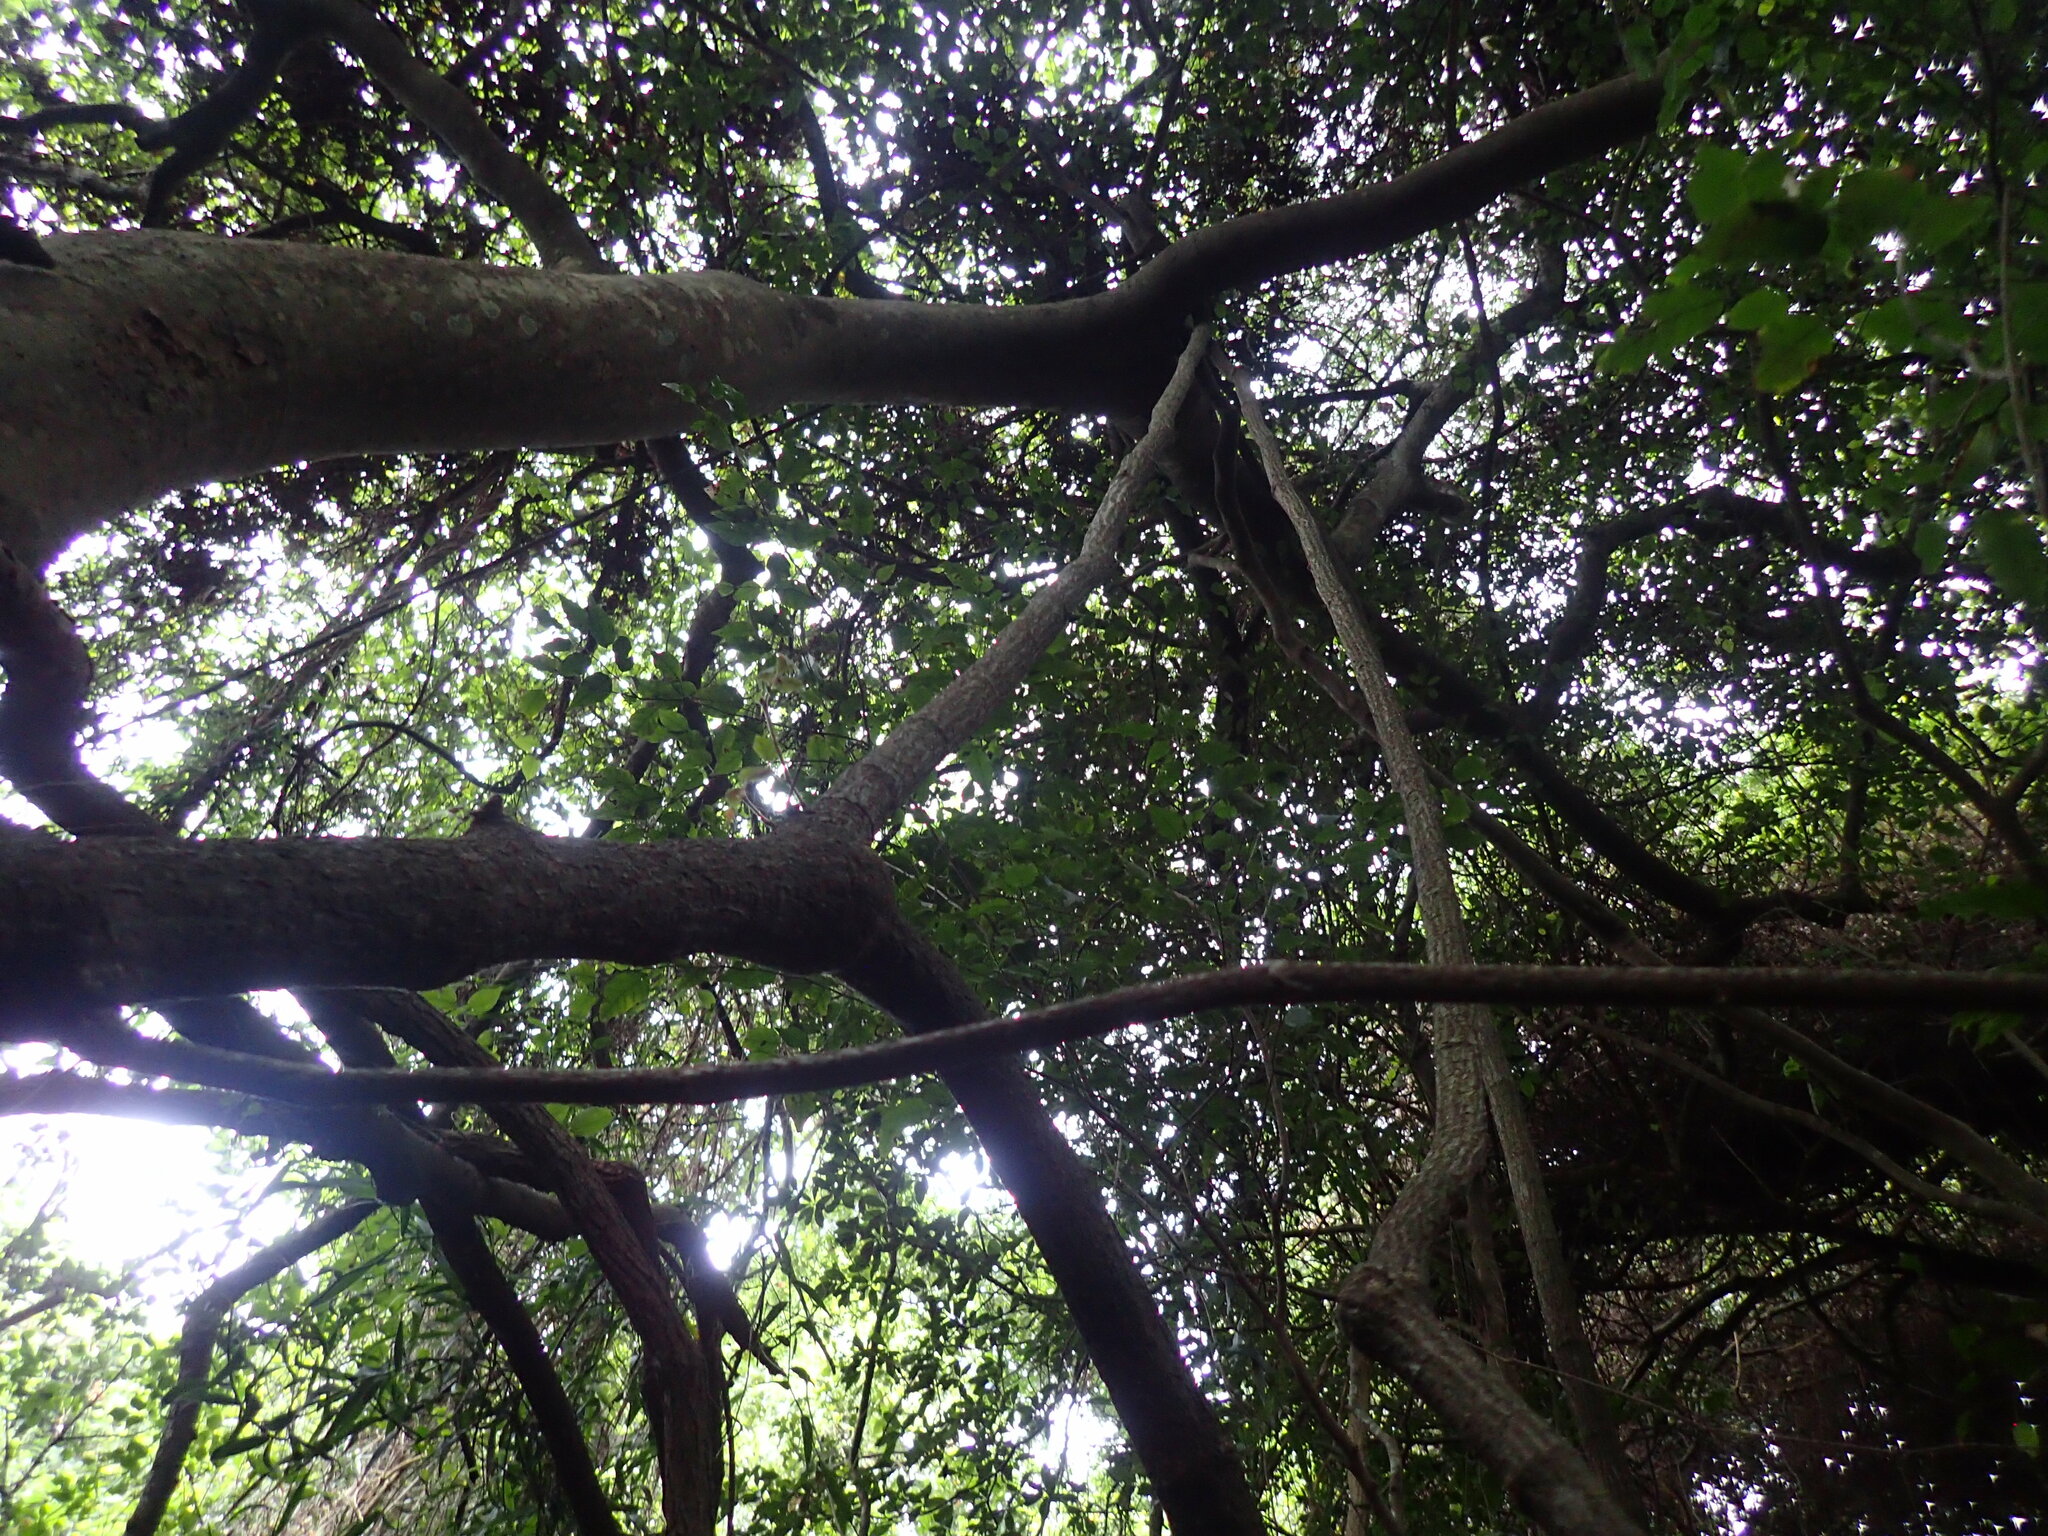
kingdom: Plantae
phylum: Tracheophyta
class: Magnoliopsida
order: Vitales
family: Vitaceae
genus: Rhoicissus
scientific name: Rhoicissus rhomboidea
